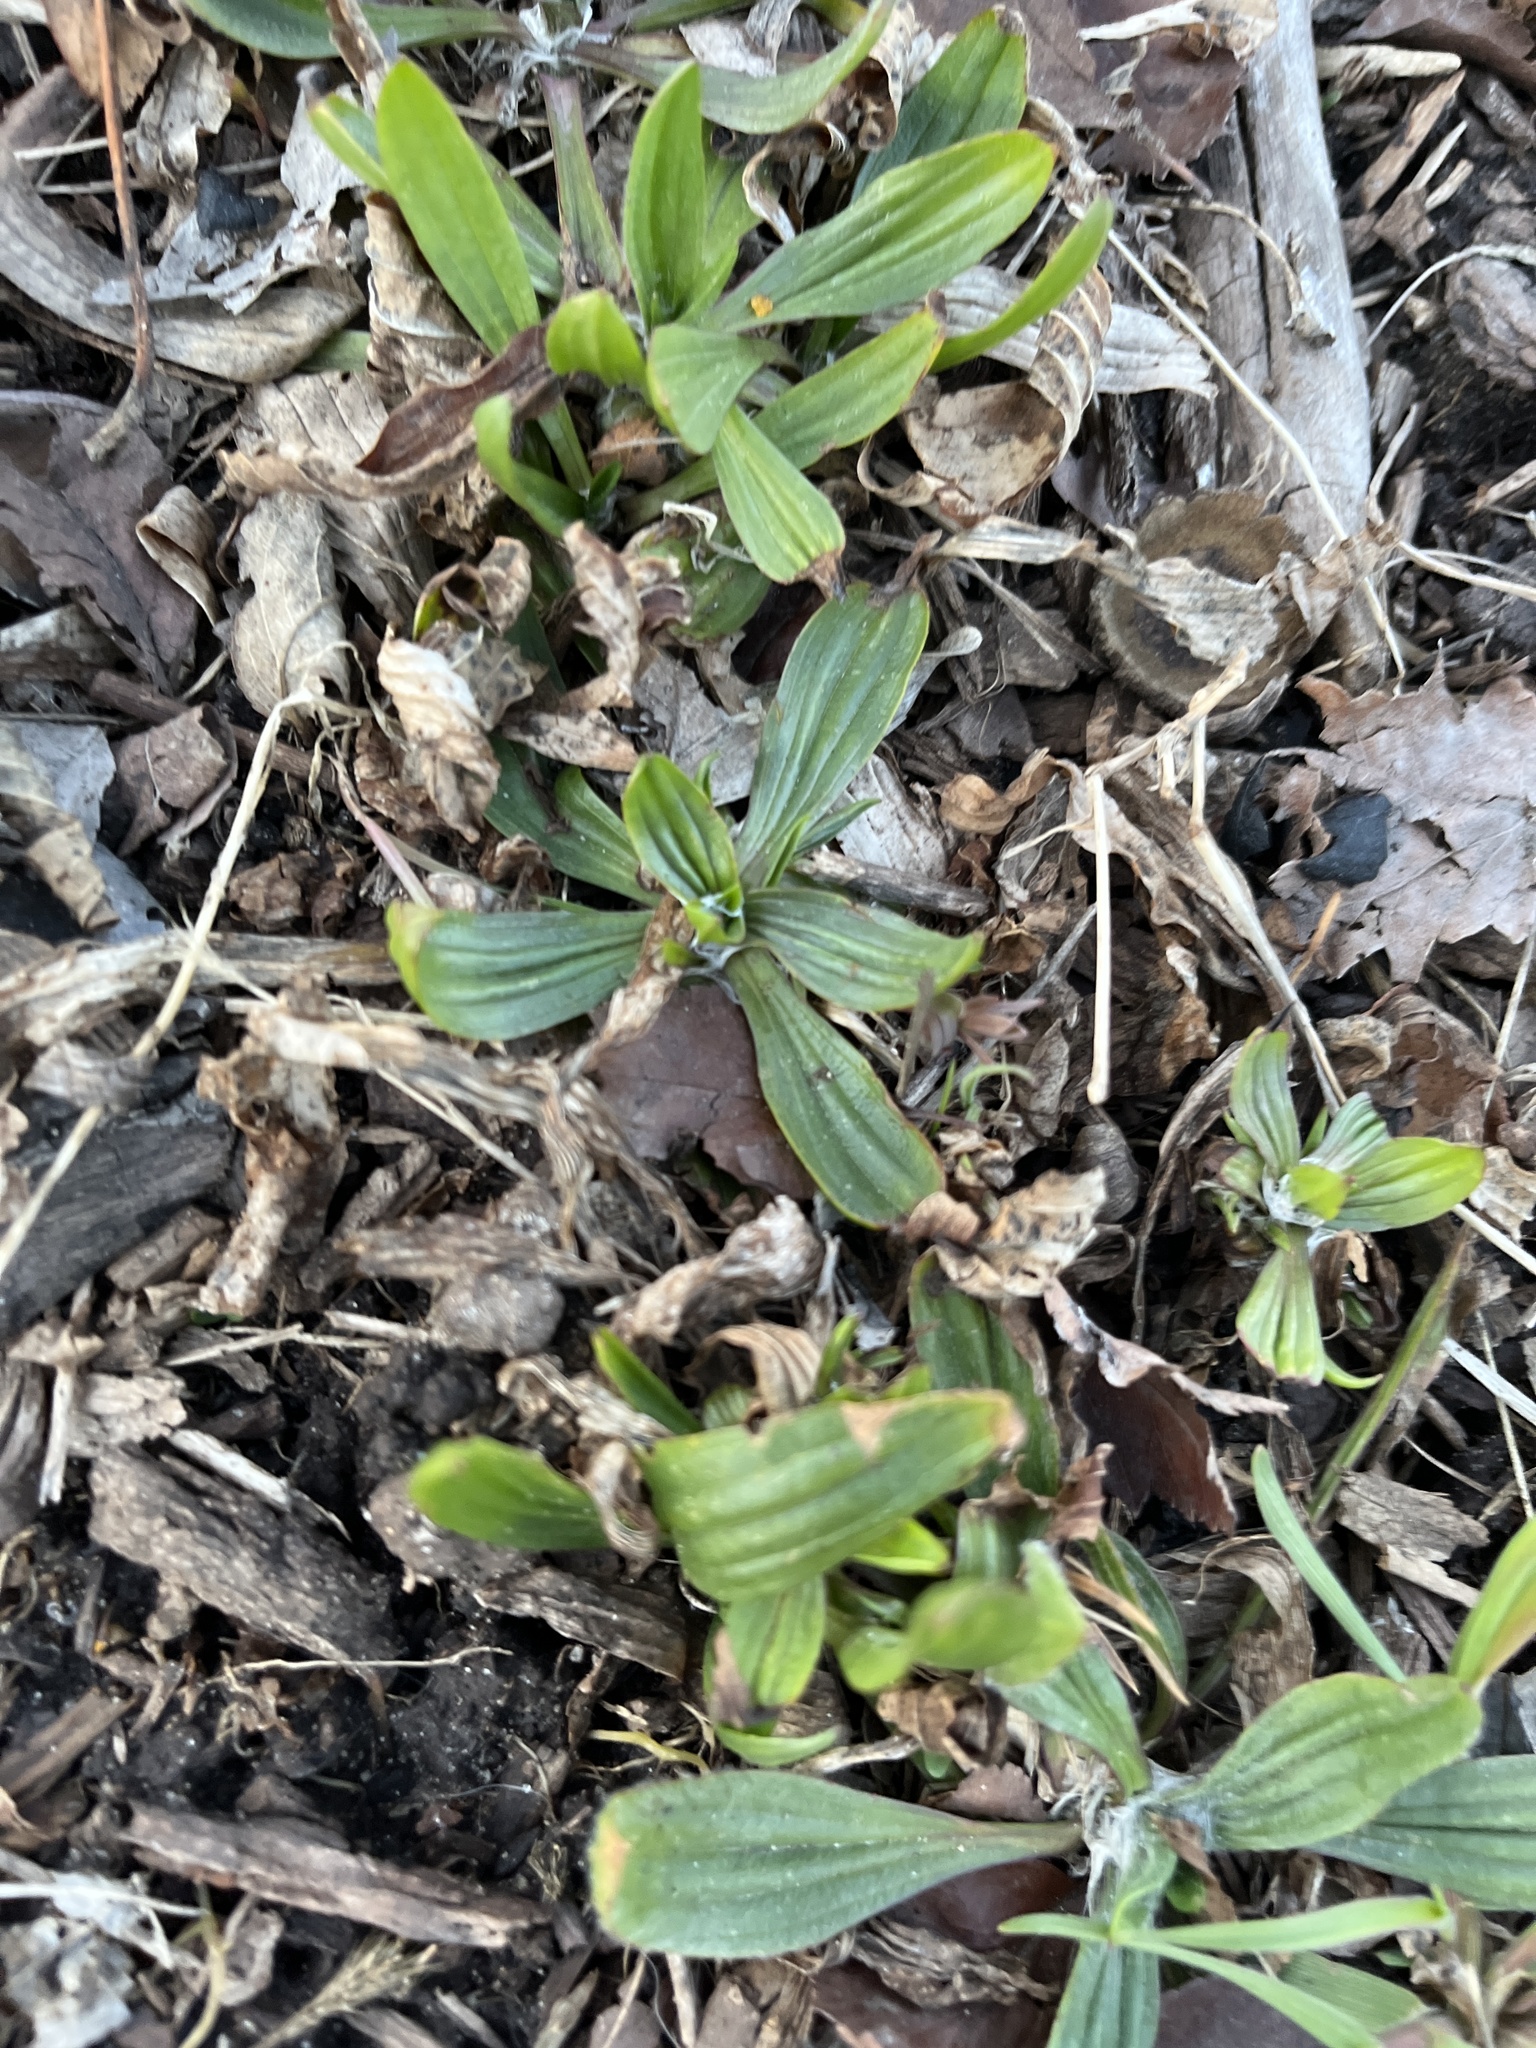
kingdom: Plantae
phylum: Tracheophyta
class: Magnoliopsida
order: Lamiales
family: Plantaginaceae
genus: Plantago
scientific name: Plantago lanceolata
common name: Ribwort plantain
